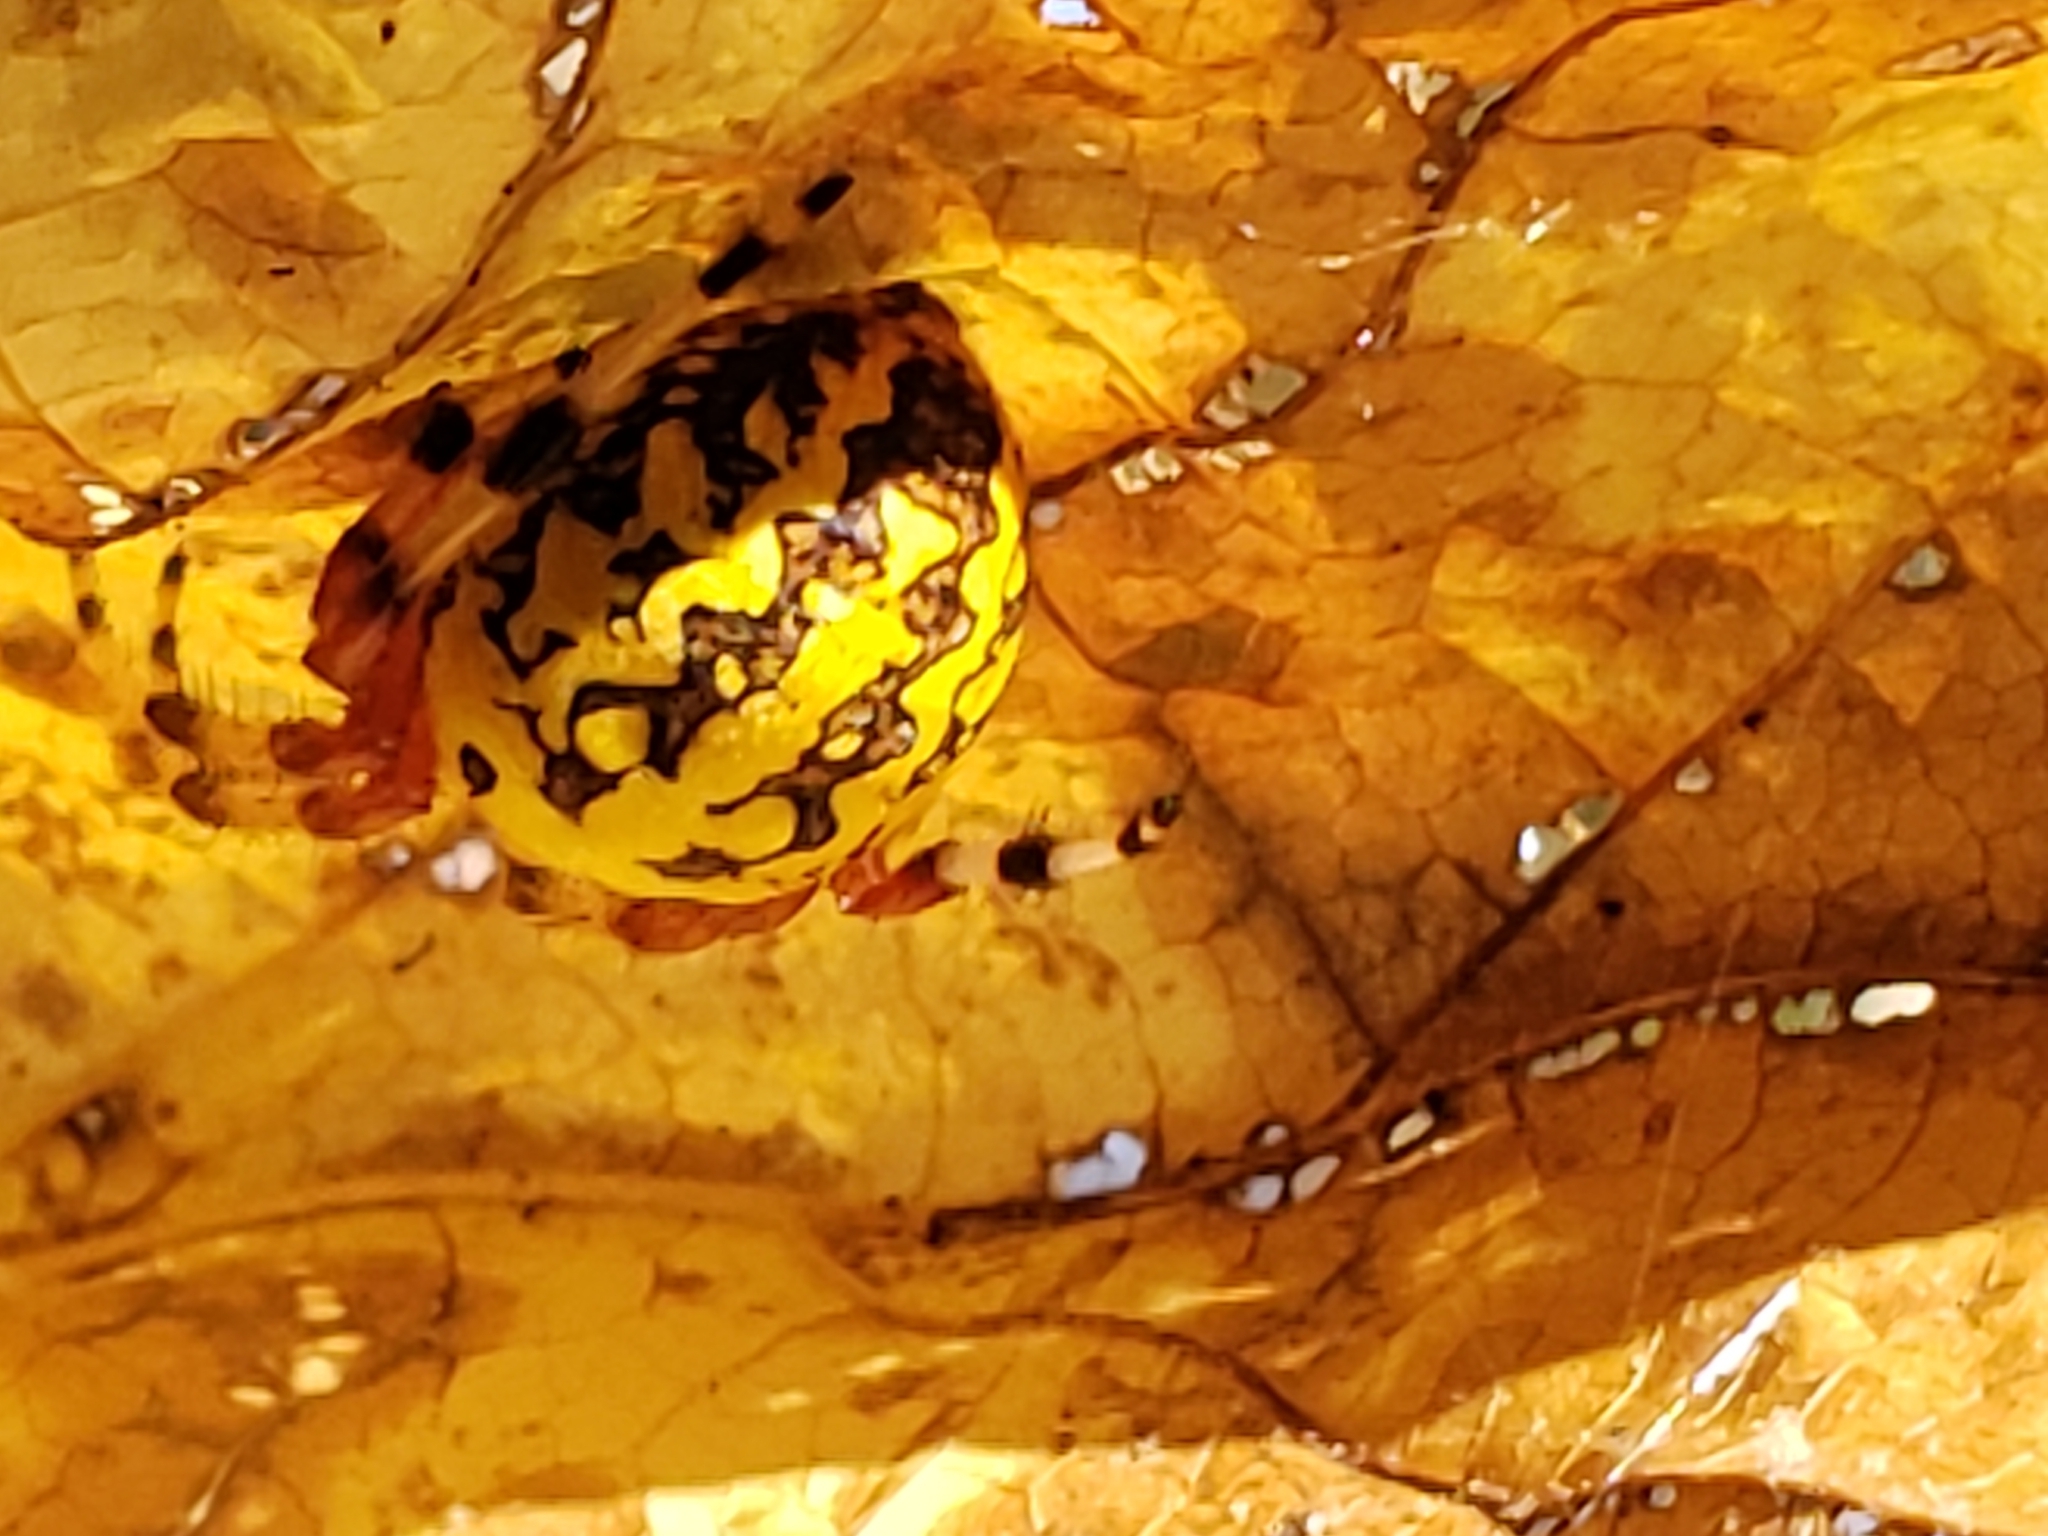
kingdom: Animalia
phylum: Arthropoda
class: Arachnida
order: Araneae
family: Araneidae
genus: Araneus
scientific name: Araneus marmoreus
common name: Marbled orbweaver
